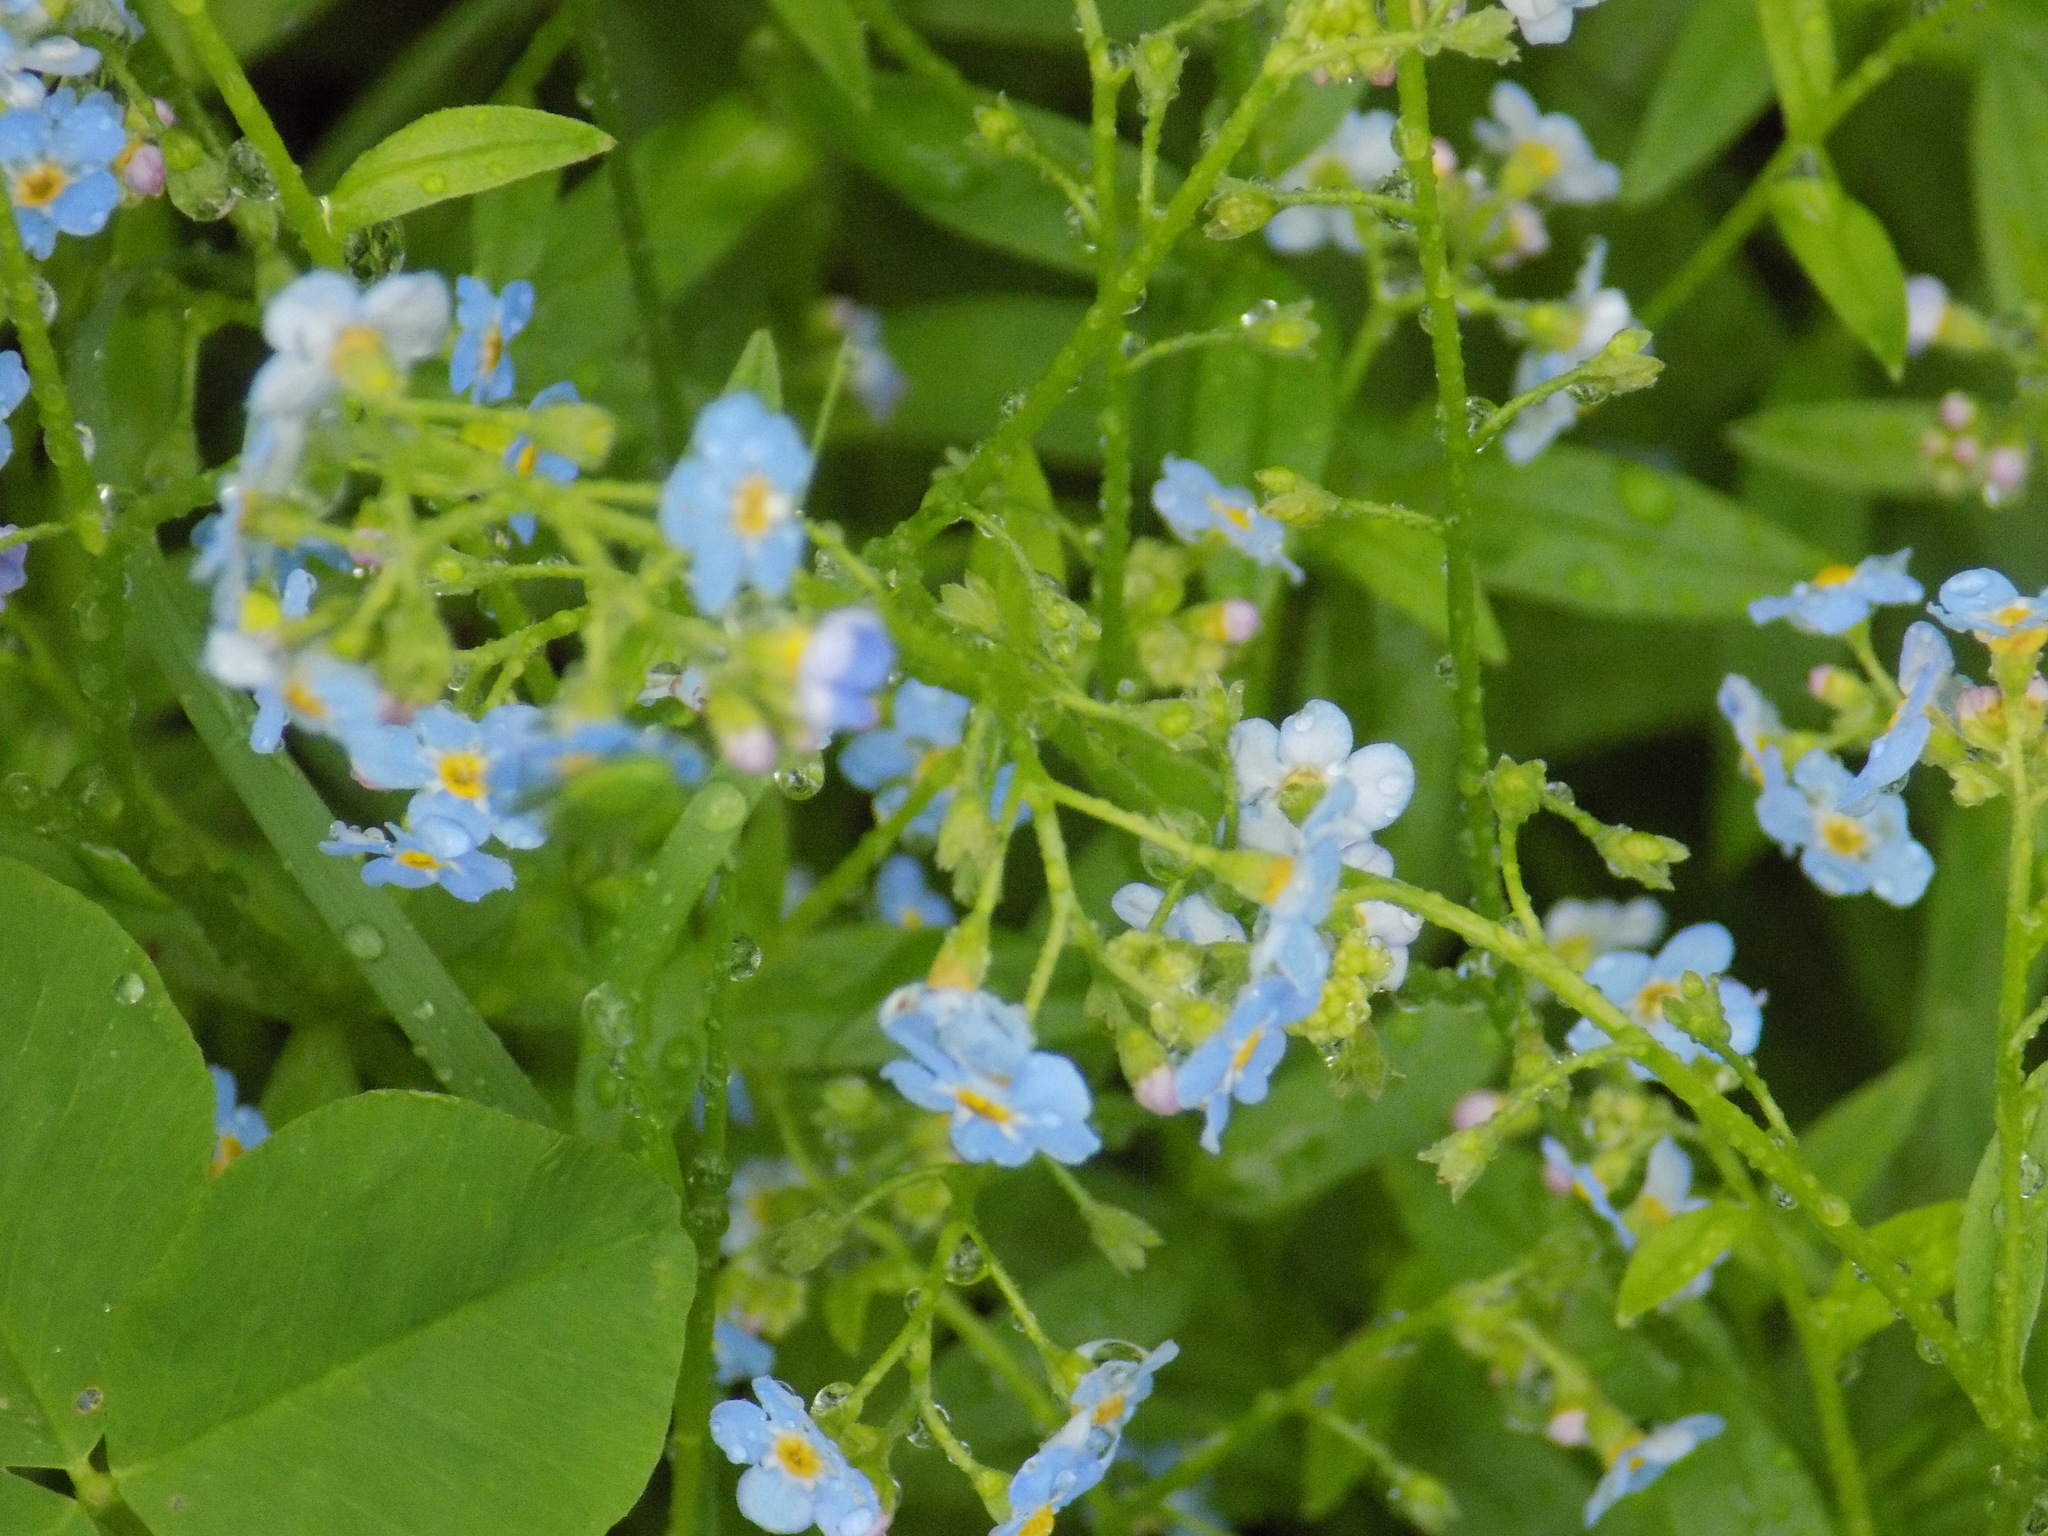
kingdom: Plantae
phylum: Tracheophyta
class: Magnoliopsida
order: Boraginales
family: Boraginaceae
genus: Myosotis
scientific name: Myosotis scorpioides
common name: Water forget-me-not
